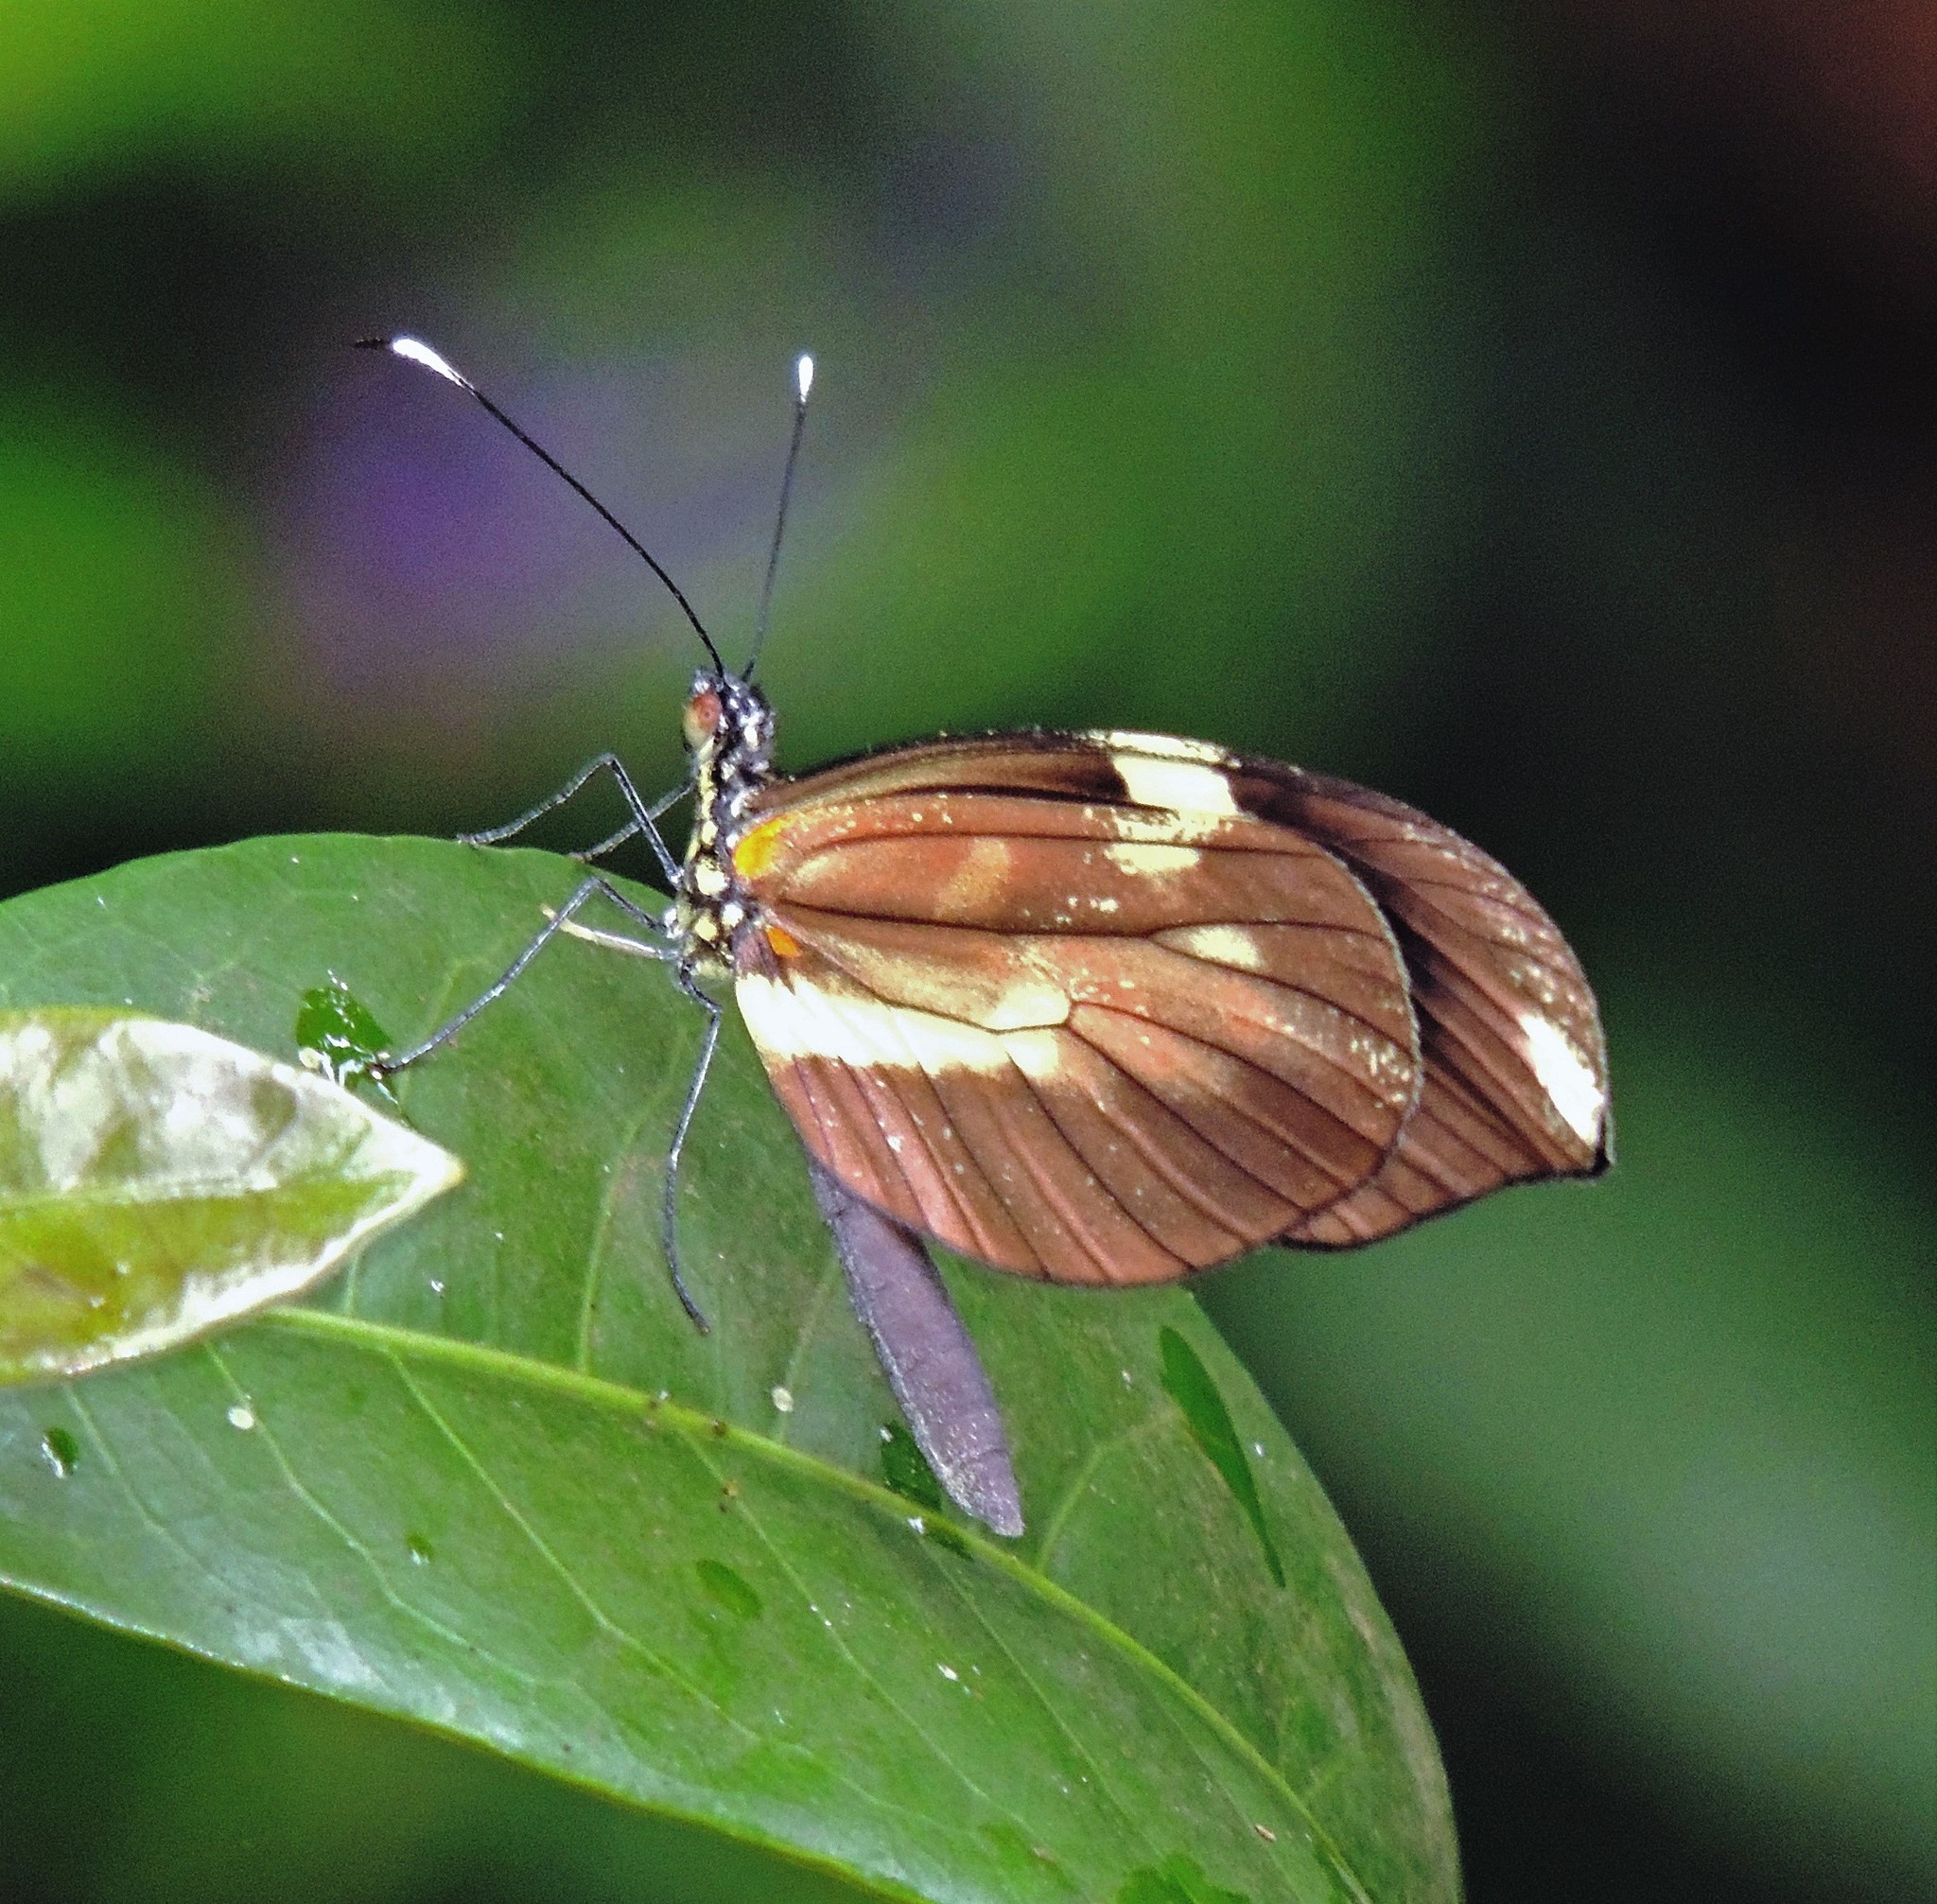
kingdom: Animalia
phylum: Arthropoda
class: Insecta
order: Lepidoptera
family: Pieridae
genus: Dismorphia
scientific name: Dismorphia astyocha
